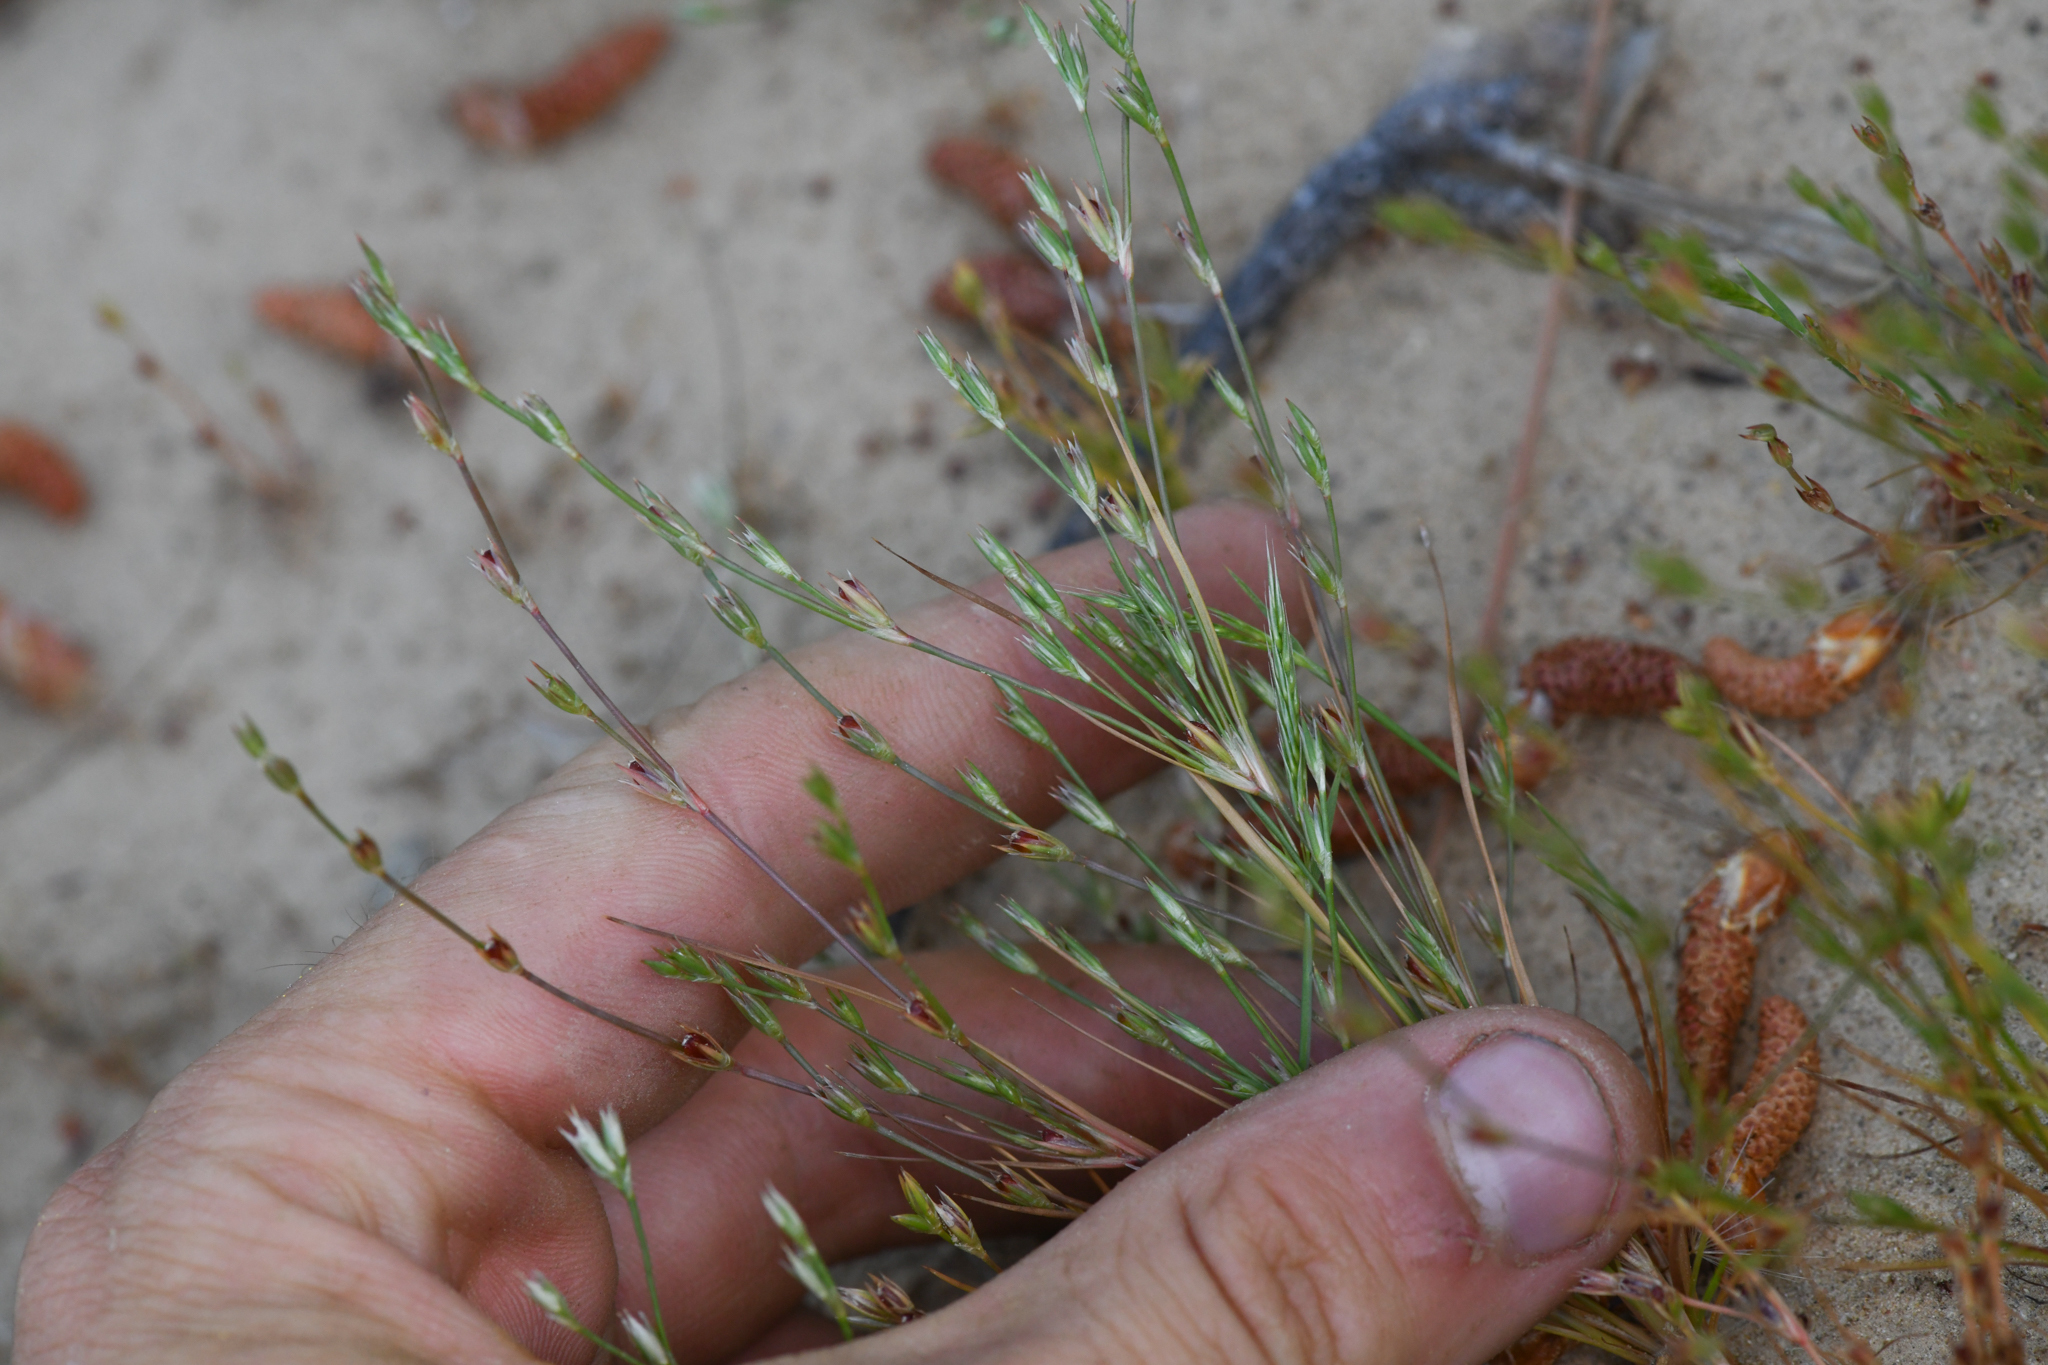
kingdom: Plantae
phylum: Tracheophyta
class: Liliopsida
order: Poales
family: Juncaceae
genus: Juncus
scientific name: Juncus bufonius
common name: Toad rush
